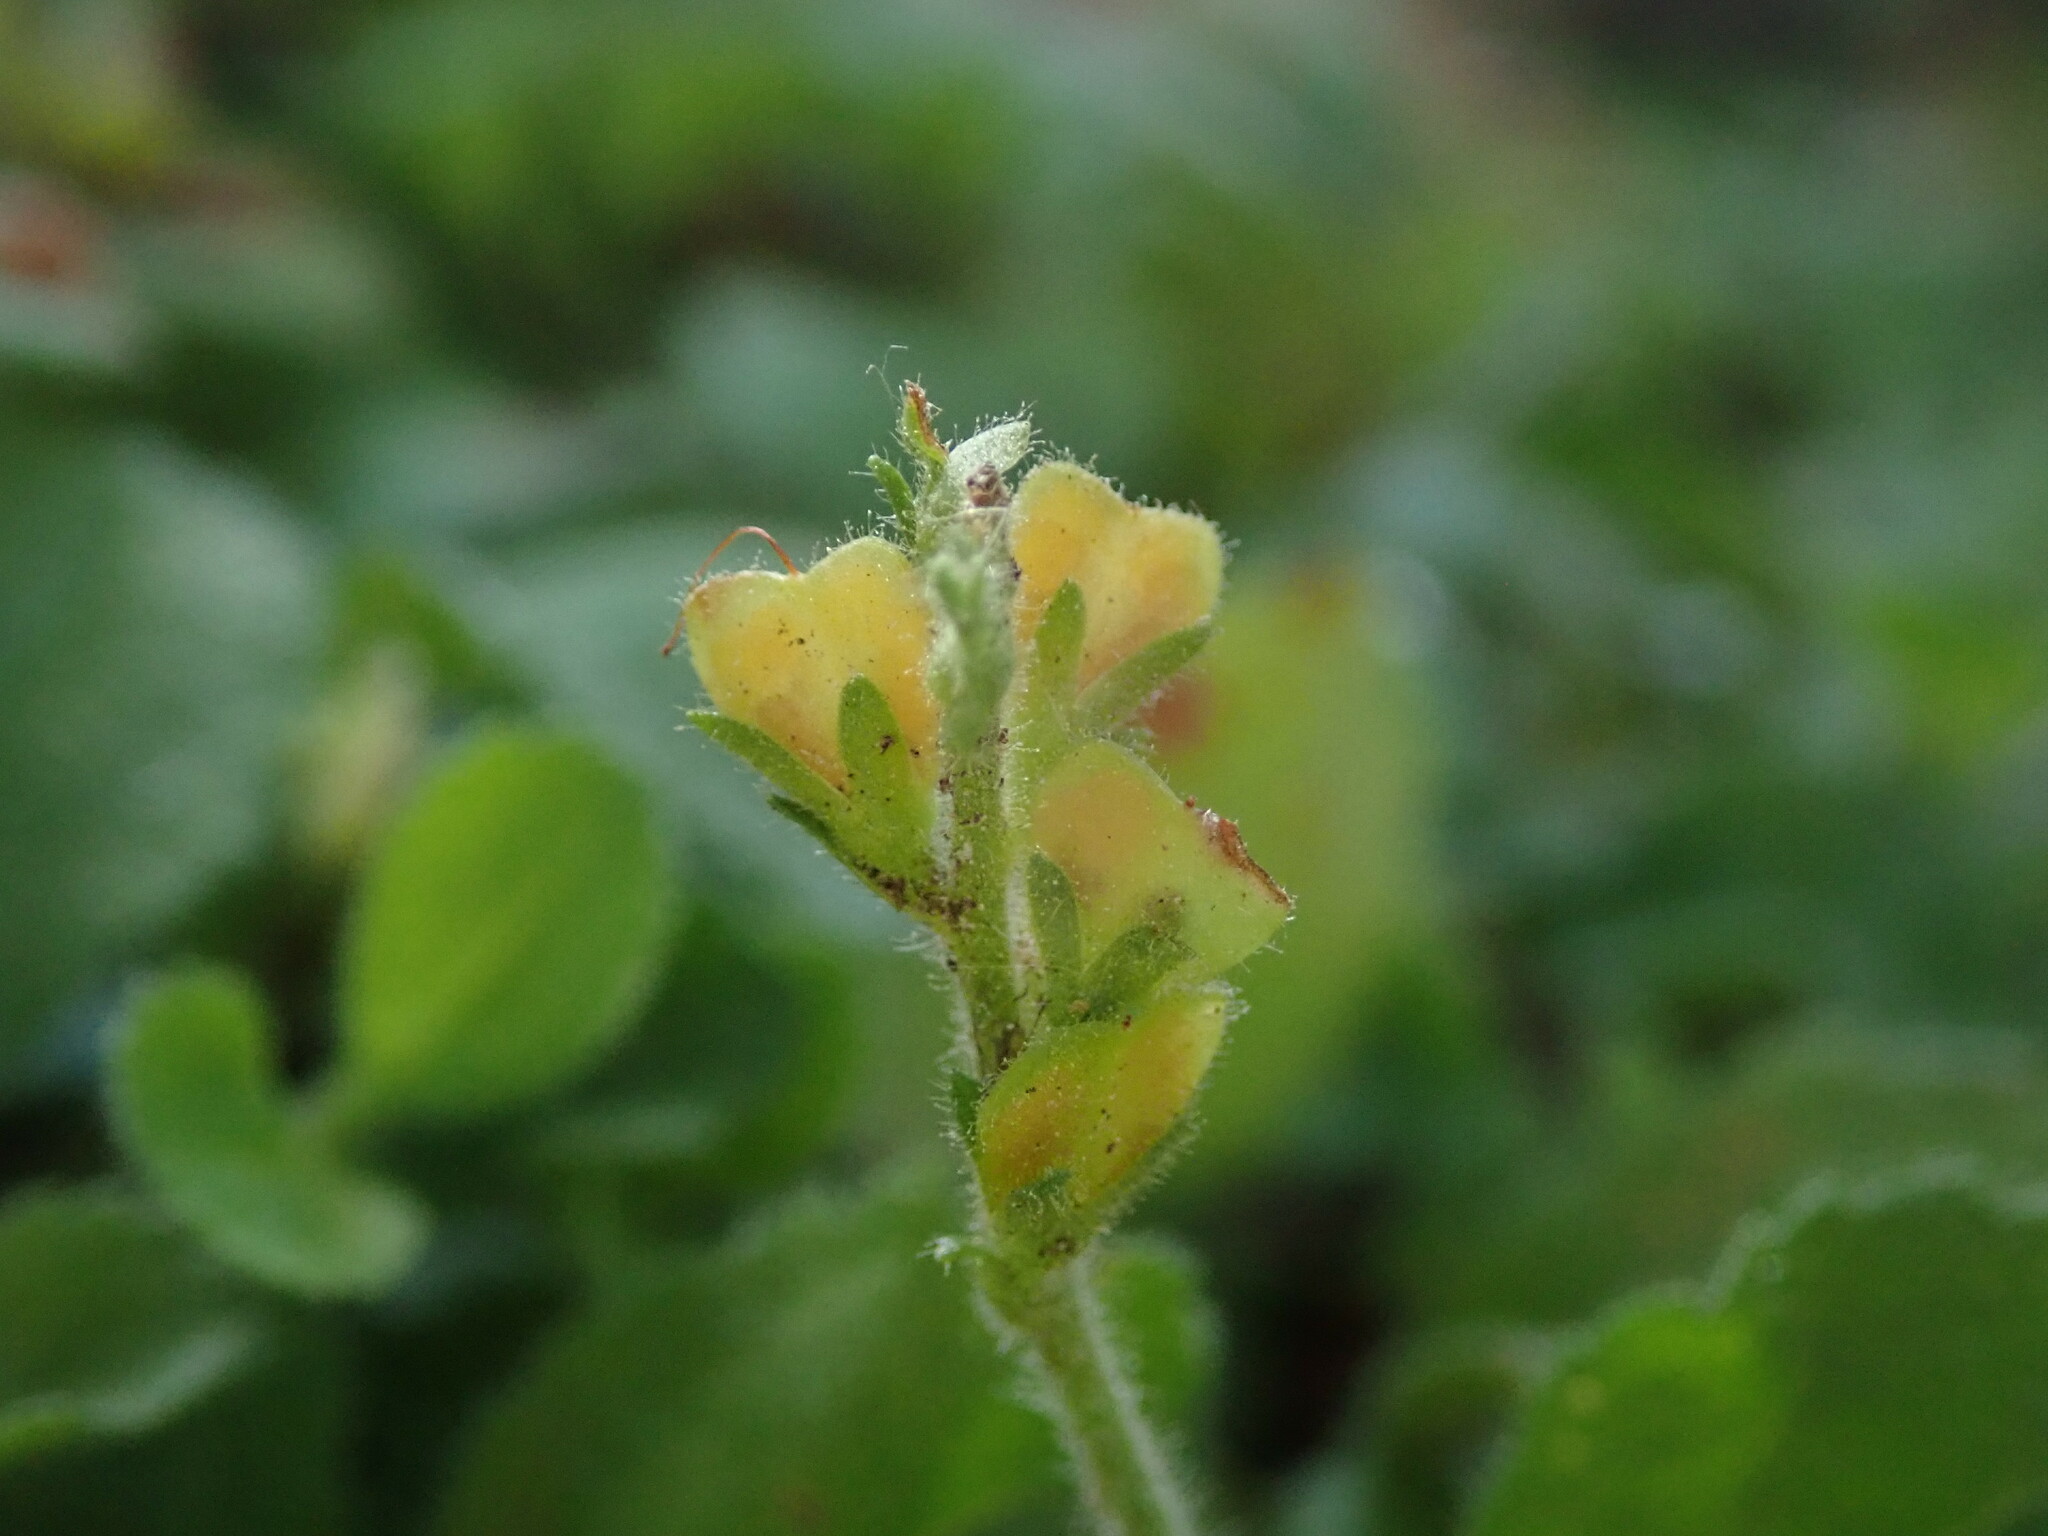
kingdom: Plantae
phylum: Tracheophyta
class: Magnoliopsida
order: Lamiales
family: Plantaginaceae
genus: Veronica
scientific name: Veronica officinalis
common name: Common speedwell
